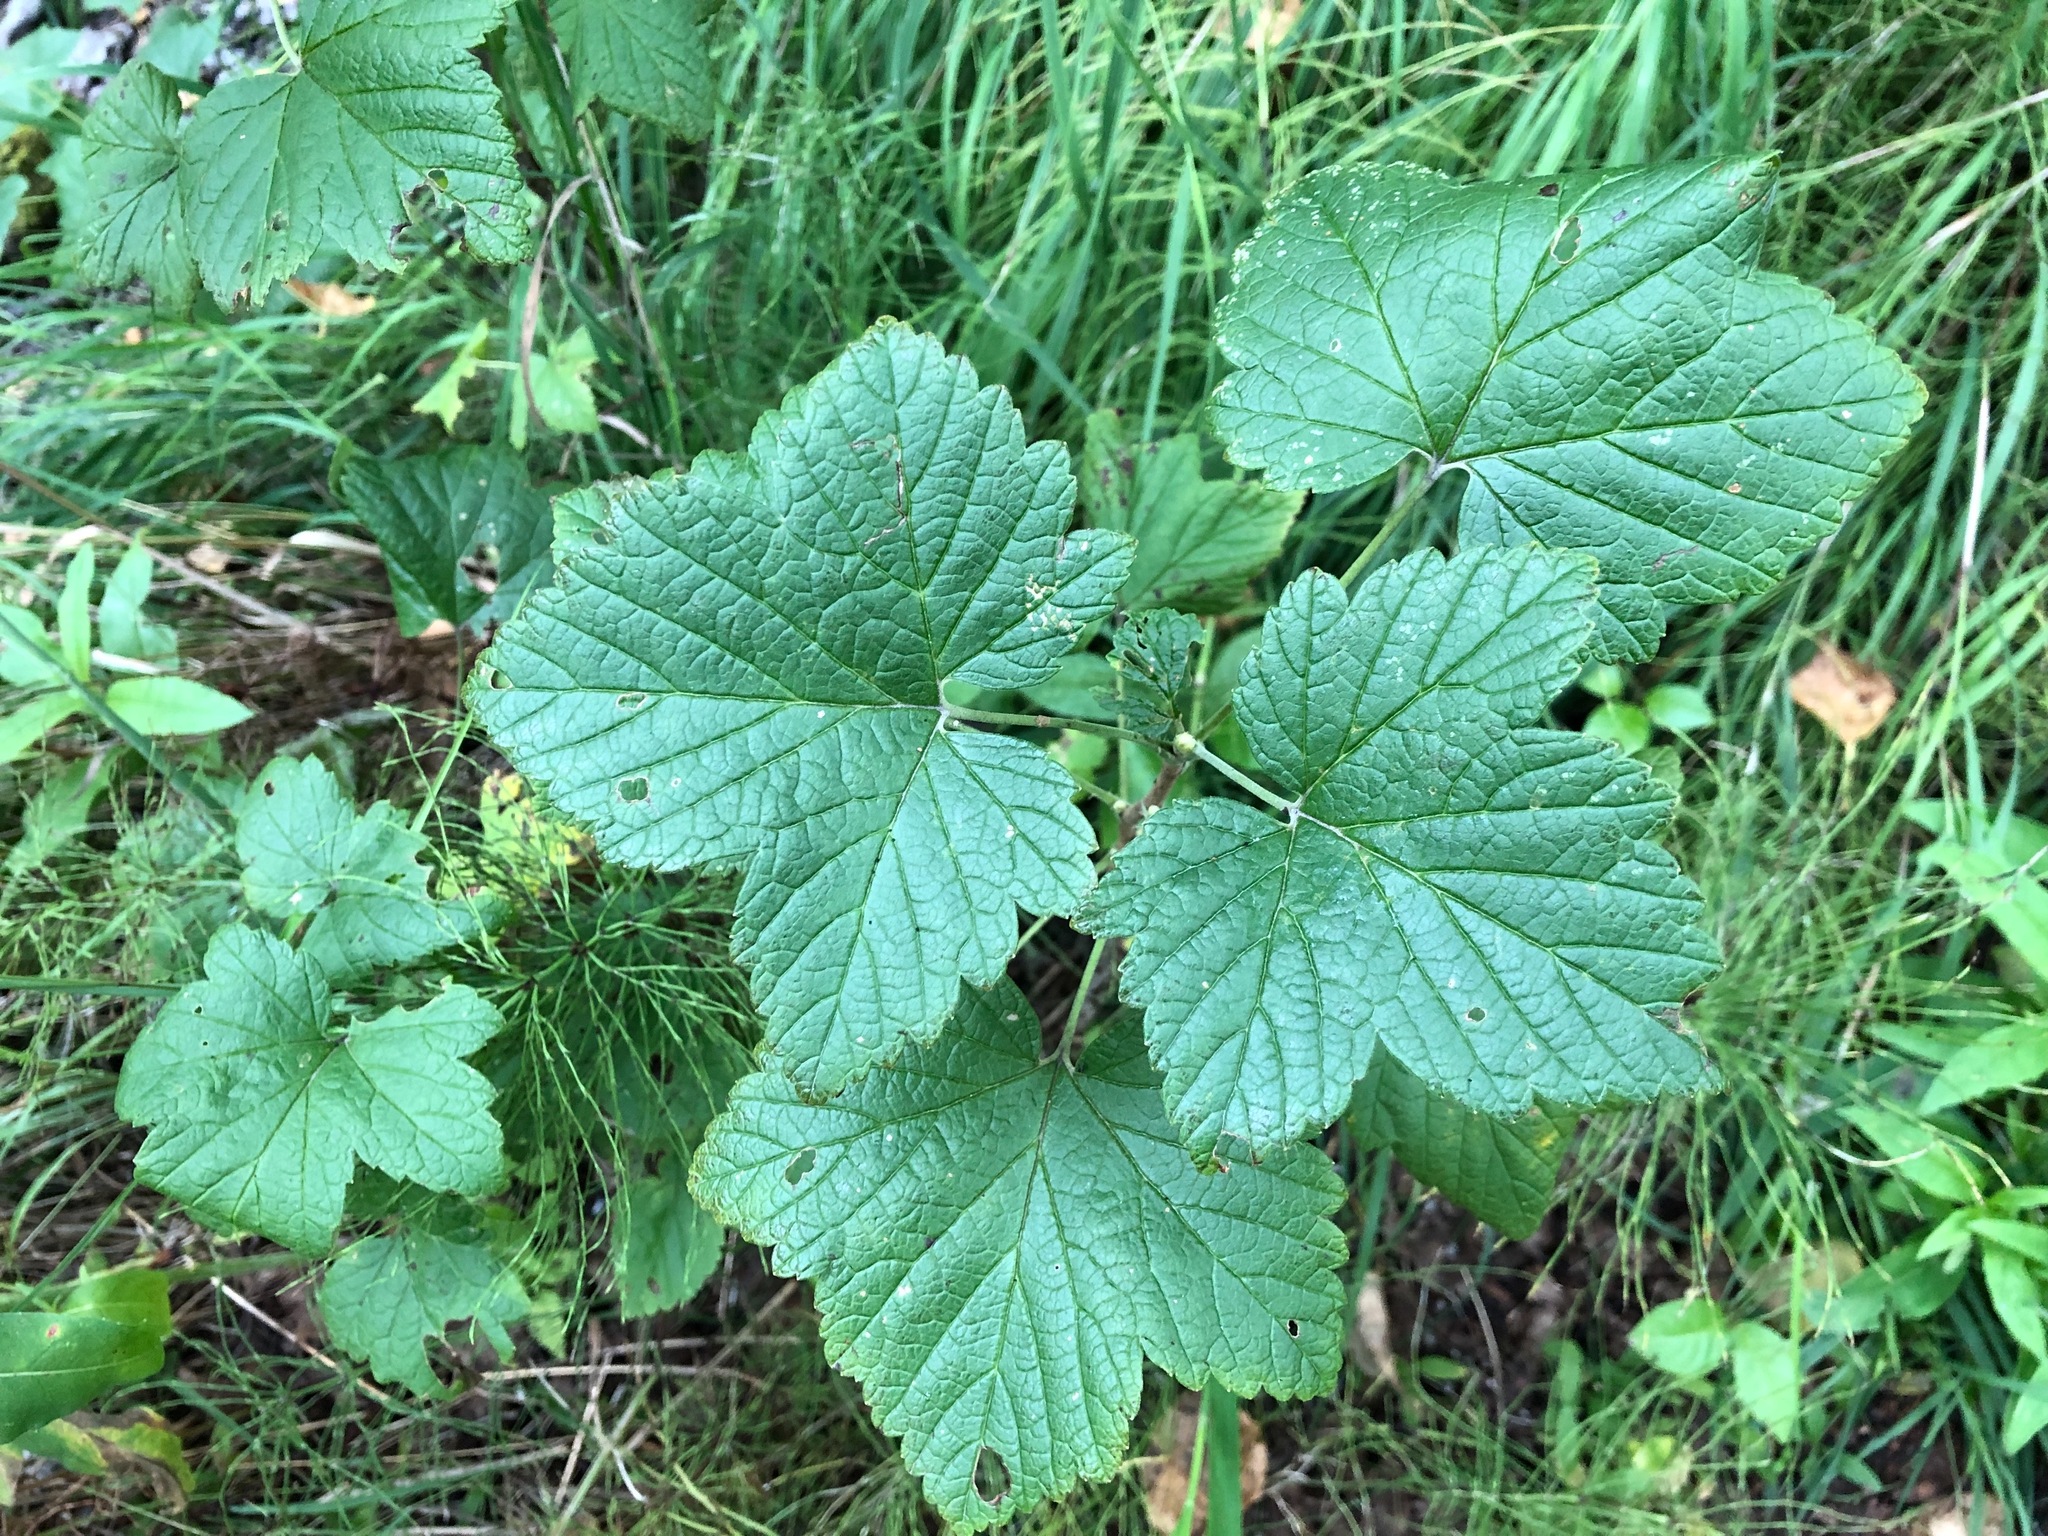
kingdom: Plantae
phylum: Tracheophyta
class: Magnoliopsida
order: Saxifragales
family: Grossulariaceae
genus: Ribes
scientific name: Ribes hudsonianum
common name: Northern black currant
